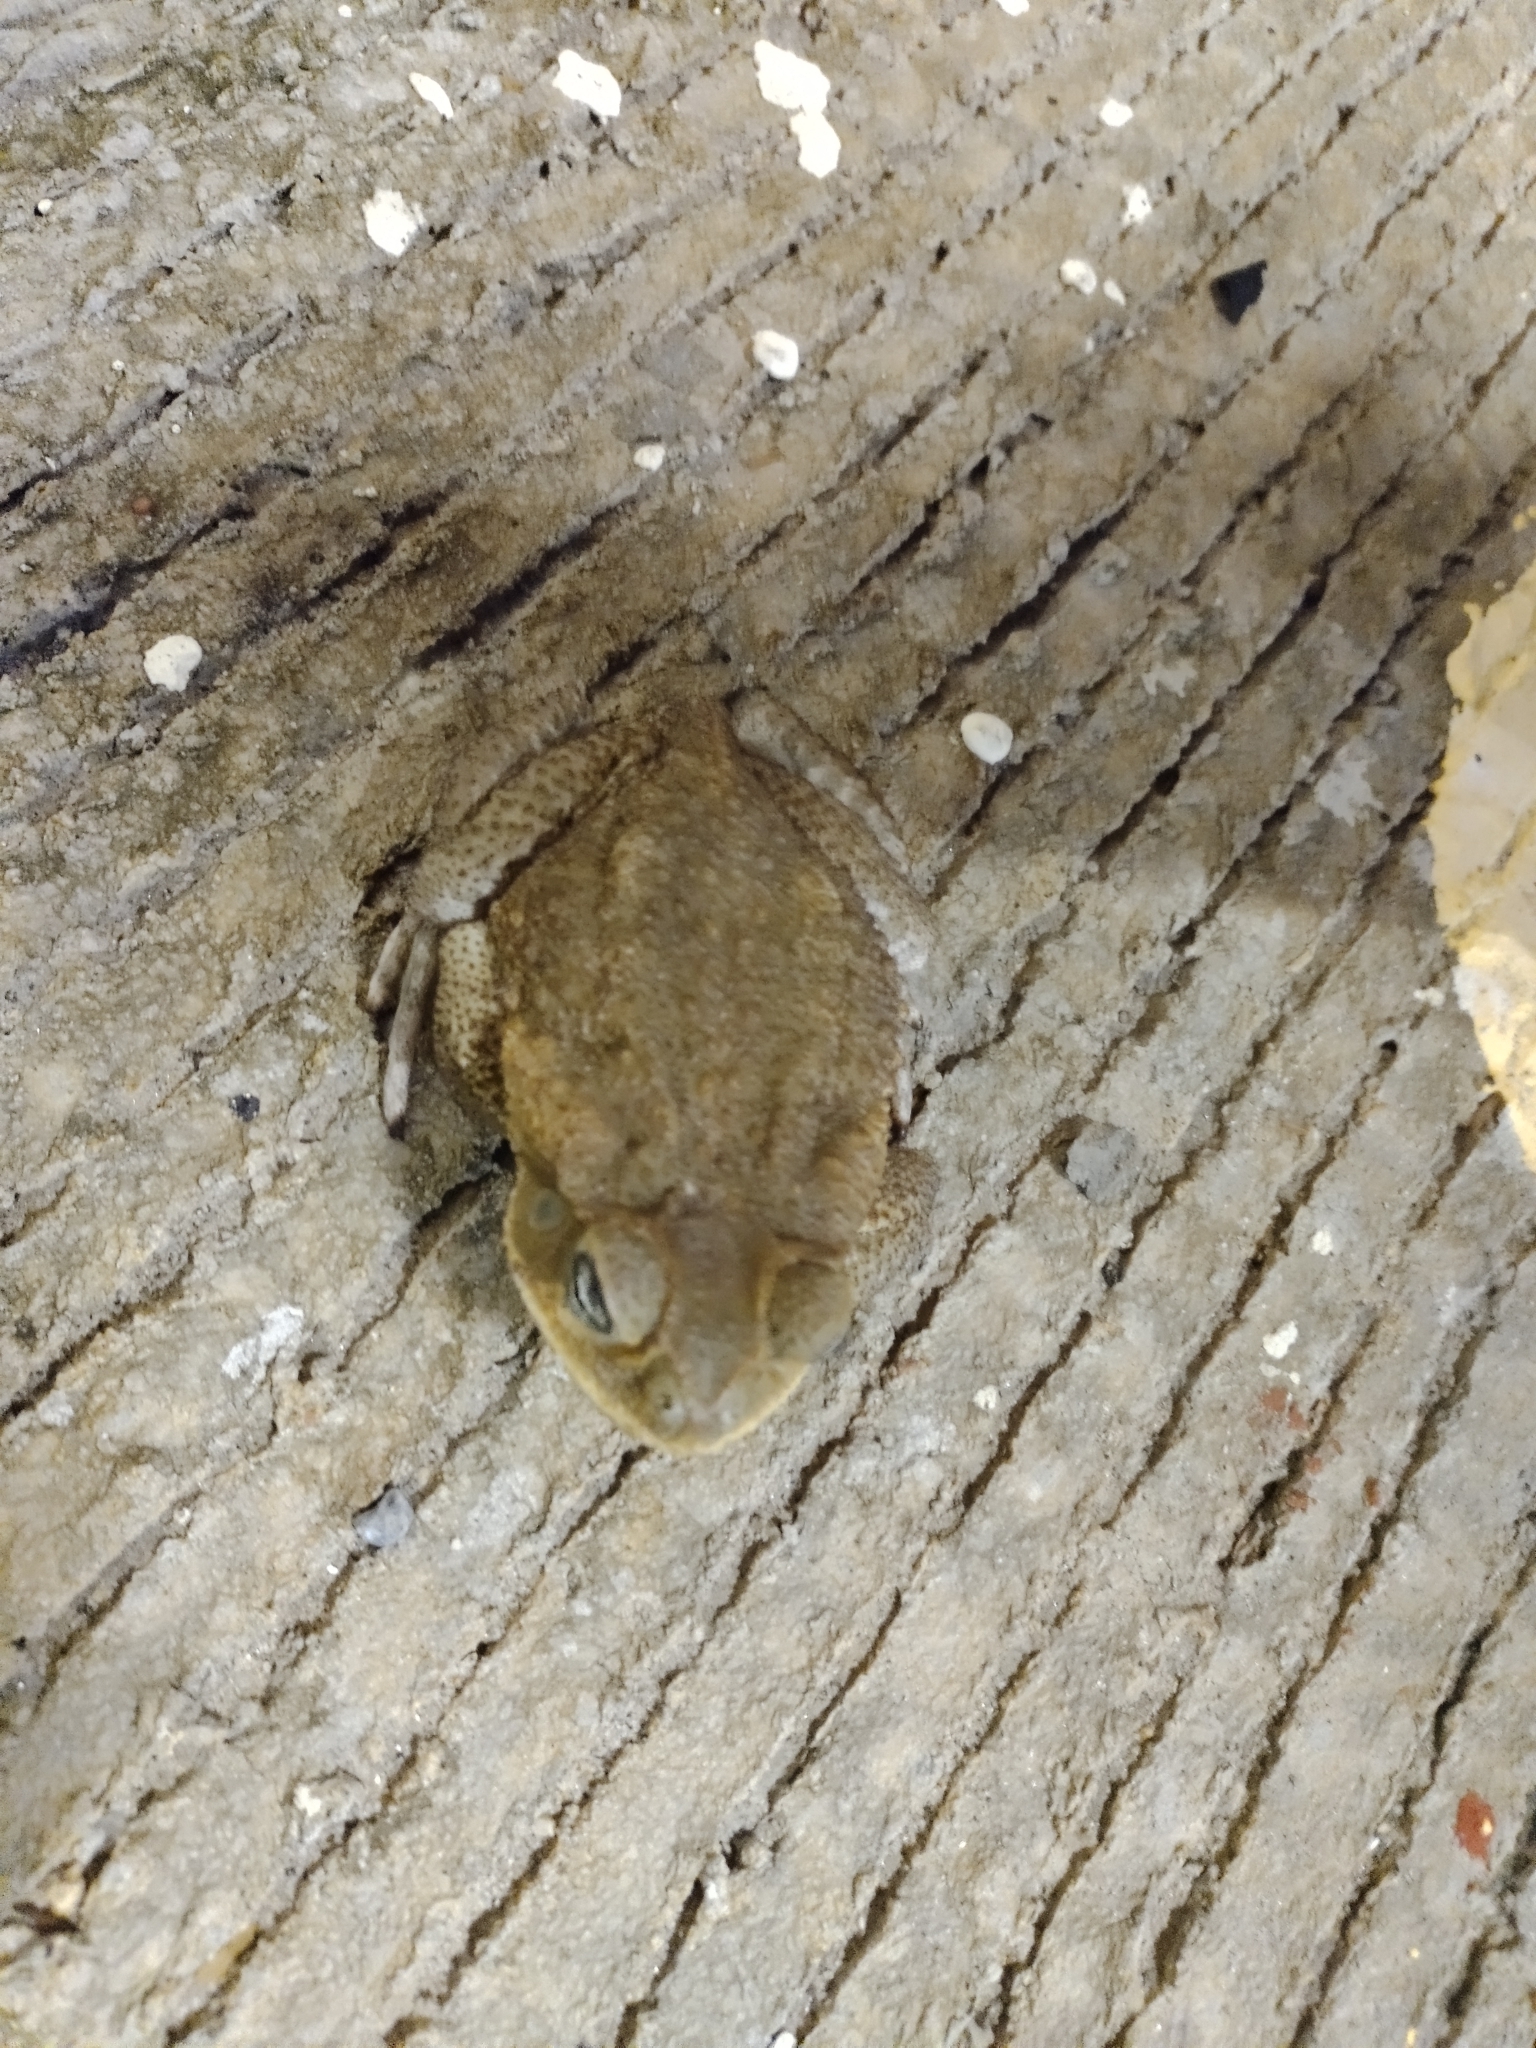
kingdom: Animalia
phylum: Chordata
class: Amphibia
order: Anura
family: Bufonidae
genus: Rhinella
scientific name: Rhinella horribilis
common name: Mesoamerican cane toad
